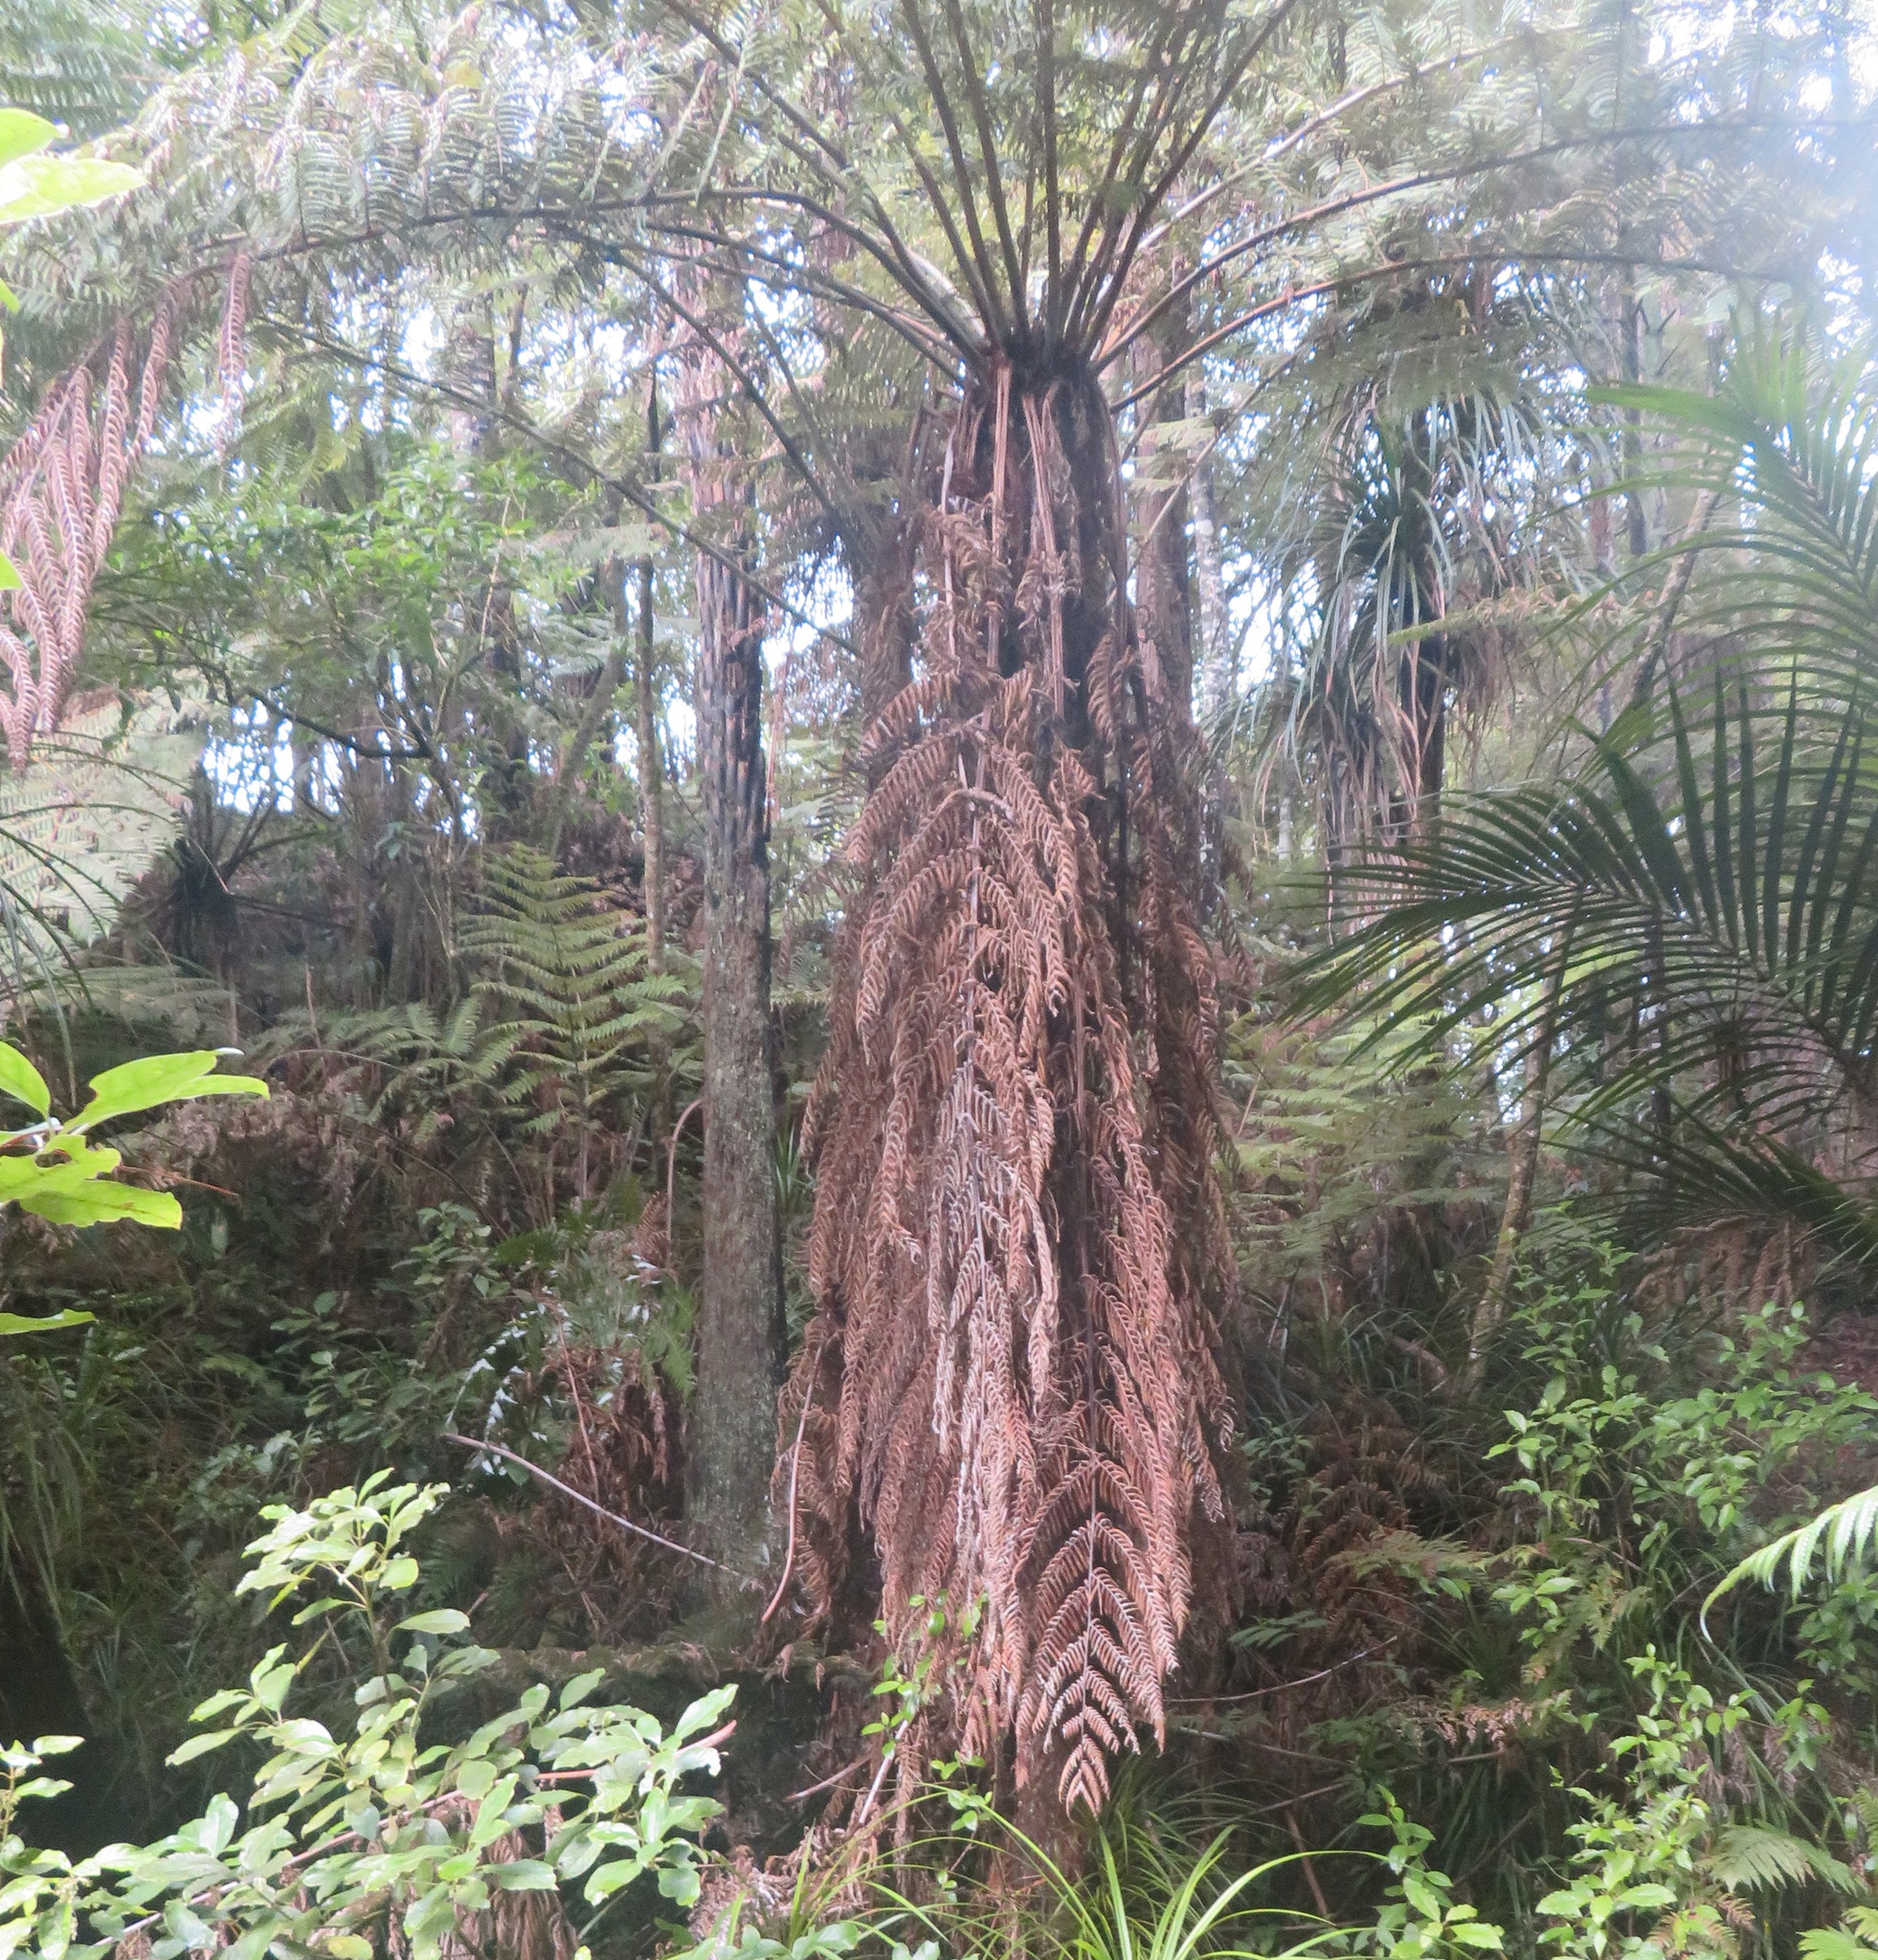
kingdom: Plantae
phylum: Tracheophyta
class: Polypodiopsida
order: Cyatheales
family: Cyatheaceae
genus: Alsophila
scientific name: Alsophila dealbata
